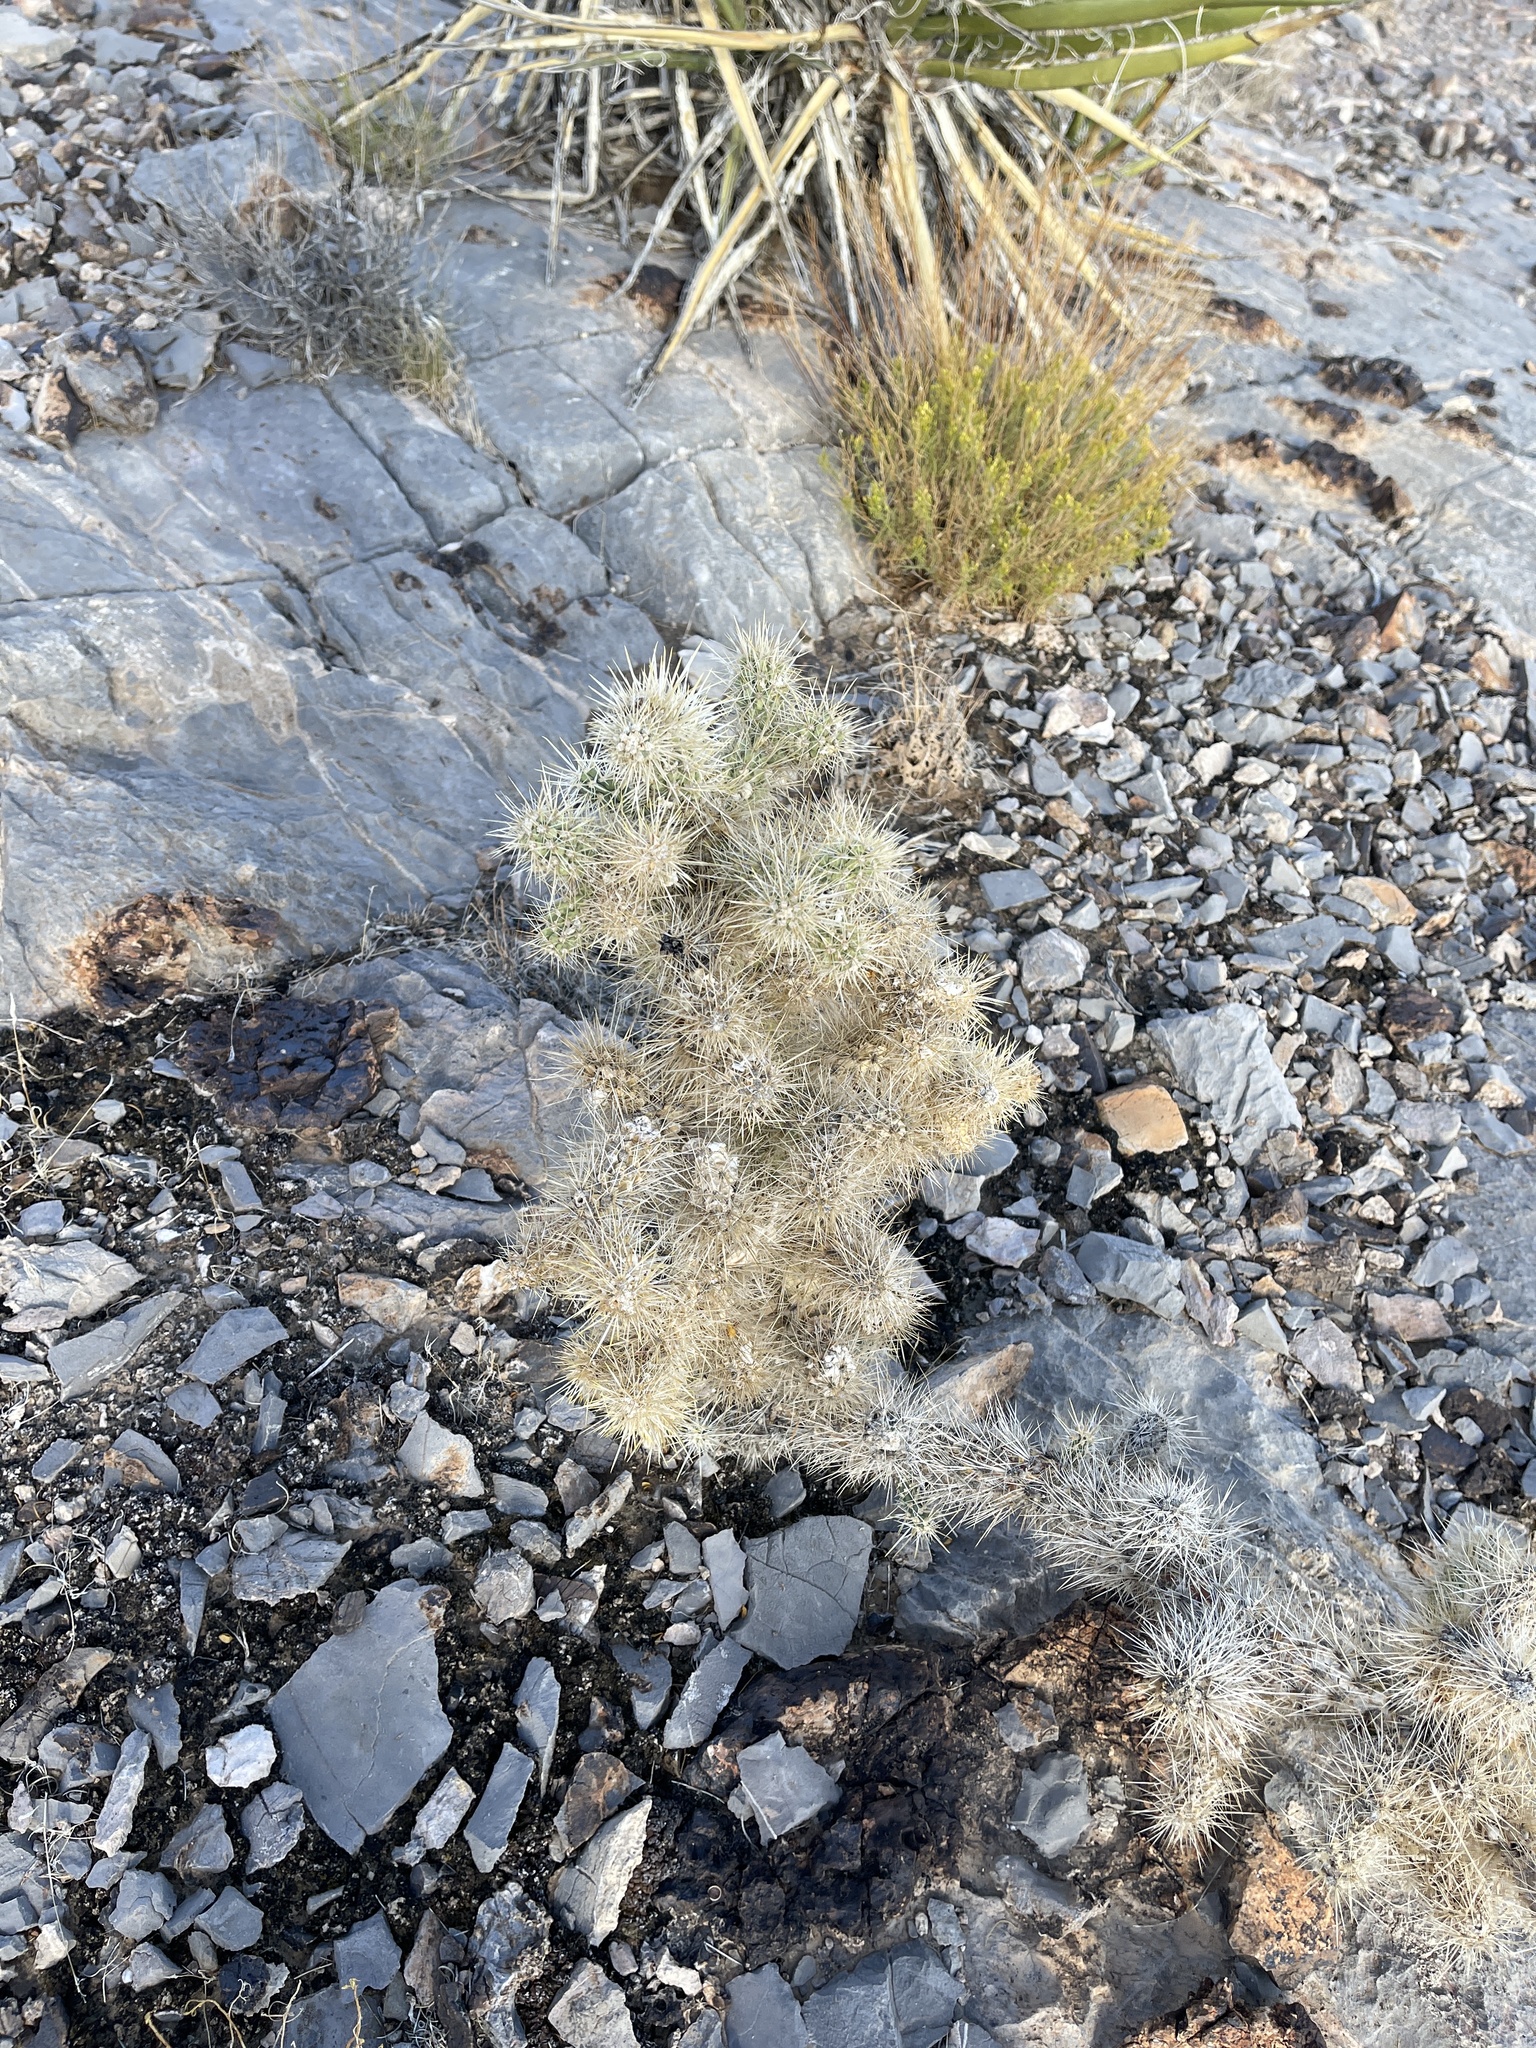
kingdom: Plantae
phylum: Tracheophyta
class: Magnoliopsida
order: Caryophyllales
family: Cactaceae
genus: Cylindropuntia
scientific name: Cylindropuntia echinocarpa
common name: Ground cholla
